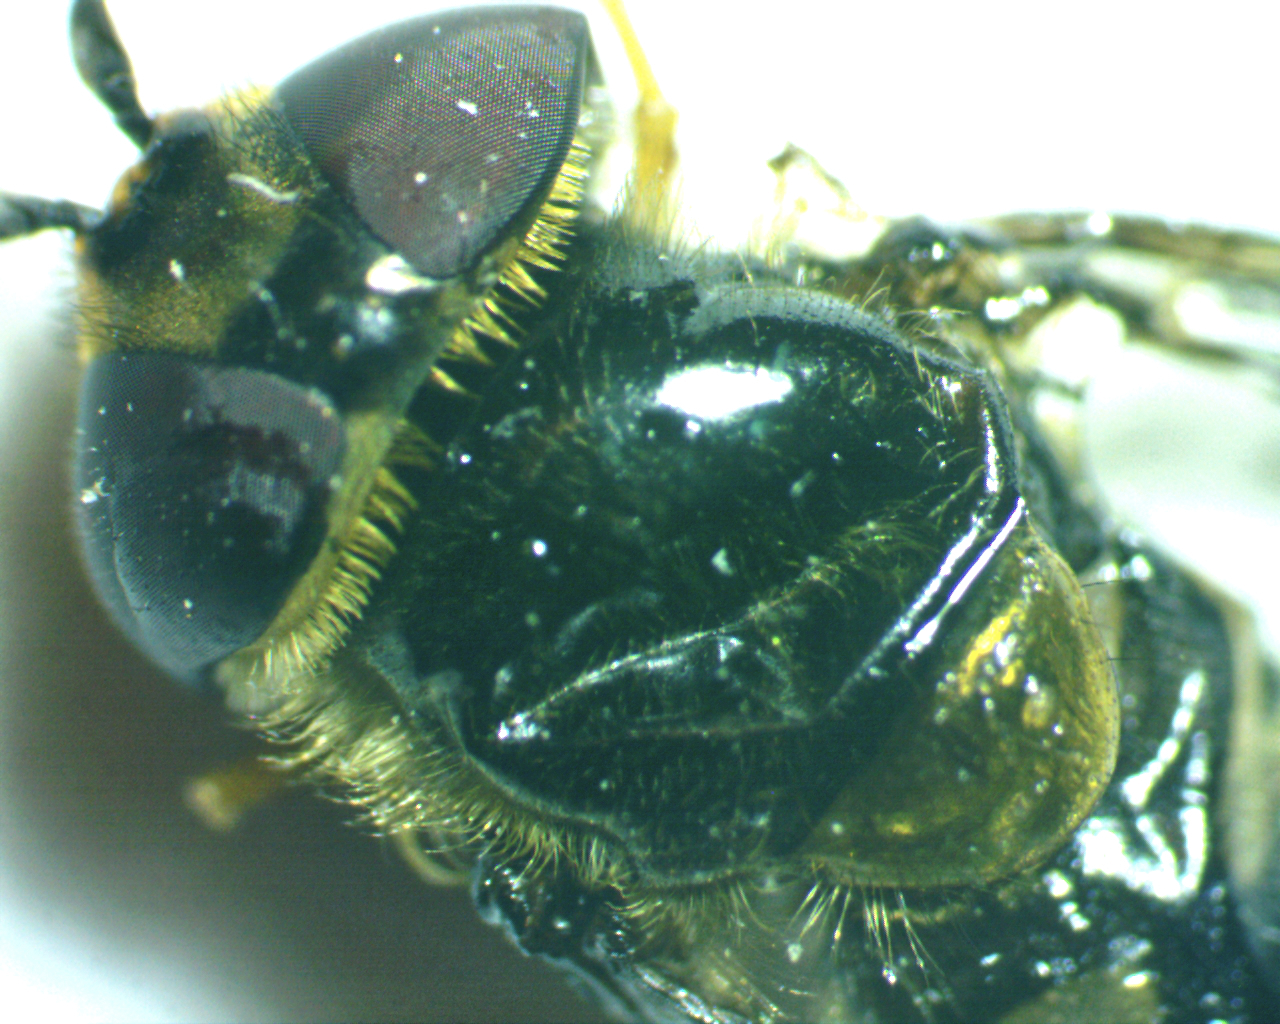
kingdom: Animalia
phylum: Arthropoda
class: Insecta
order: Diptera
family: Syrphidae
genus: Syrphus
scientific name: Syrphus torvus
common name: Hairy-eyed flower fly
